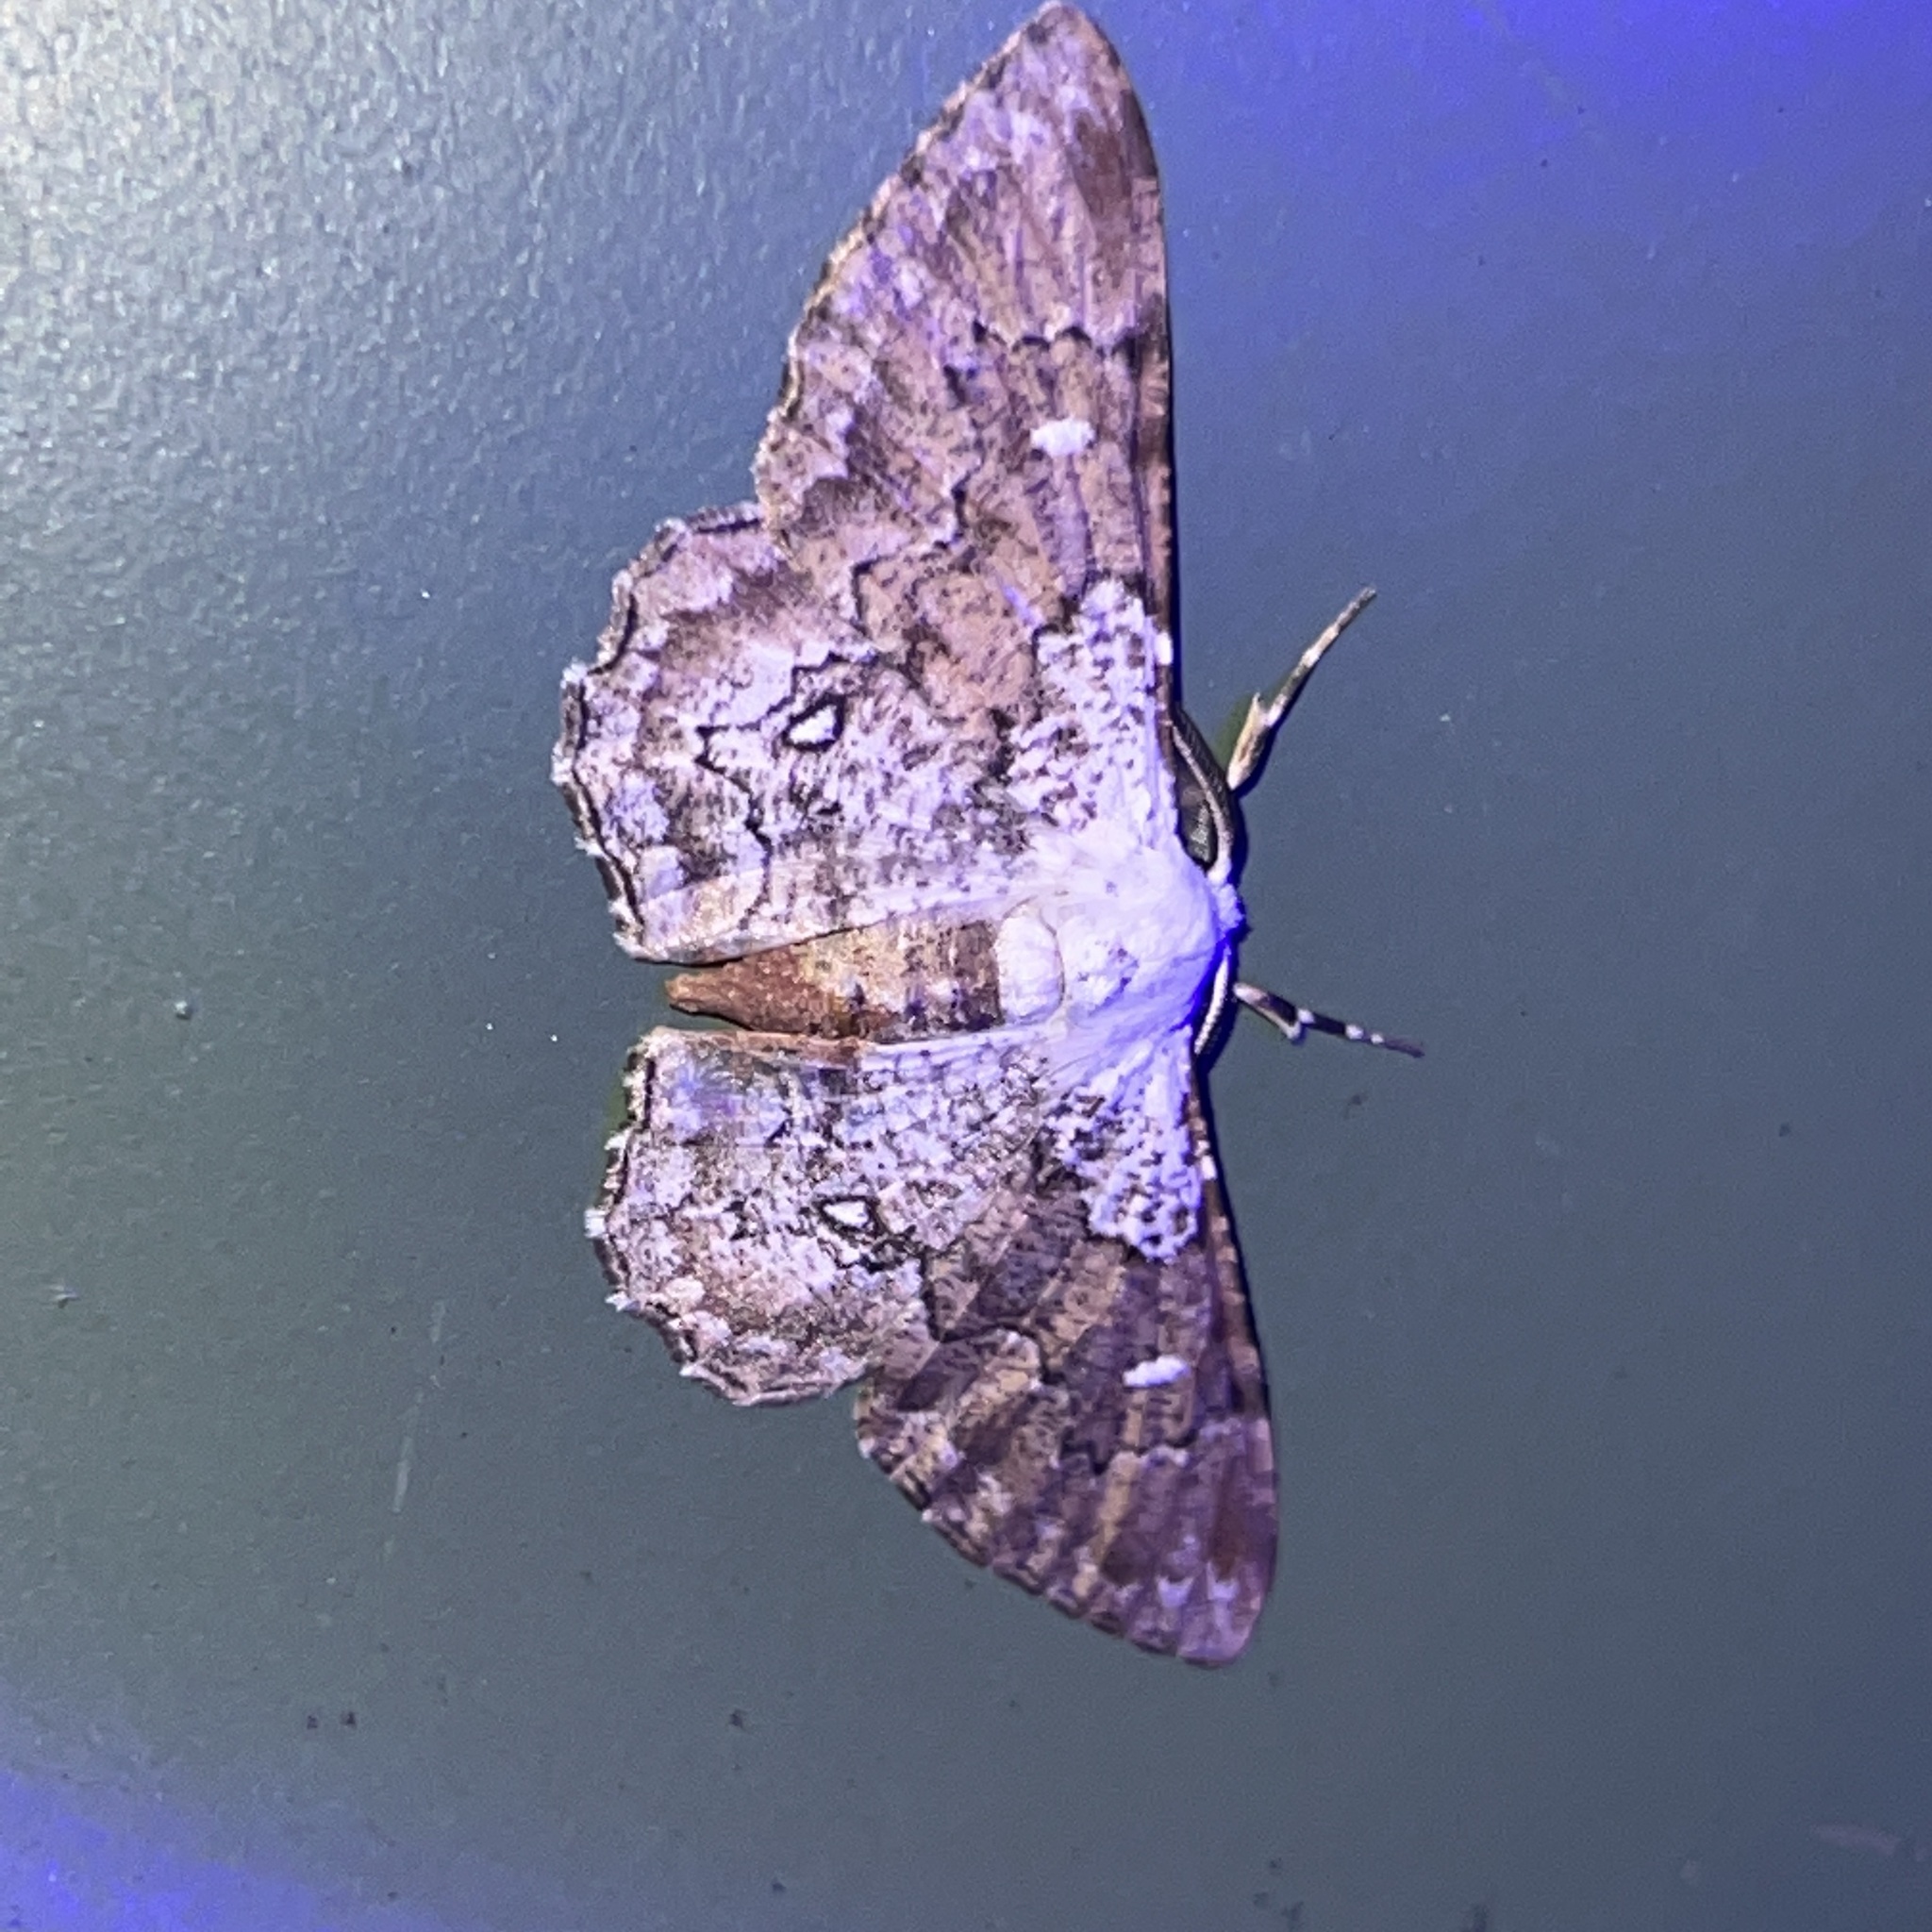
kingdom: Animalia
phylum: Arthropoda
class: Insecta
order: Lepidoptera
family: Geometridae
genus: Iridopsis
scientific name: Iridopsis validaria
